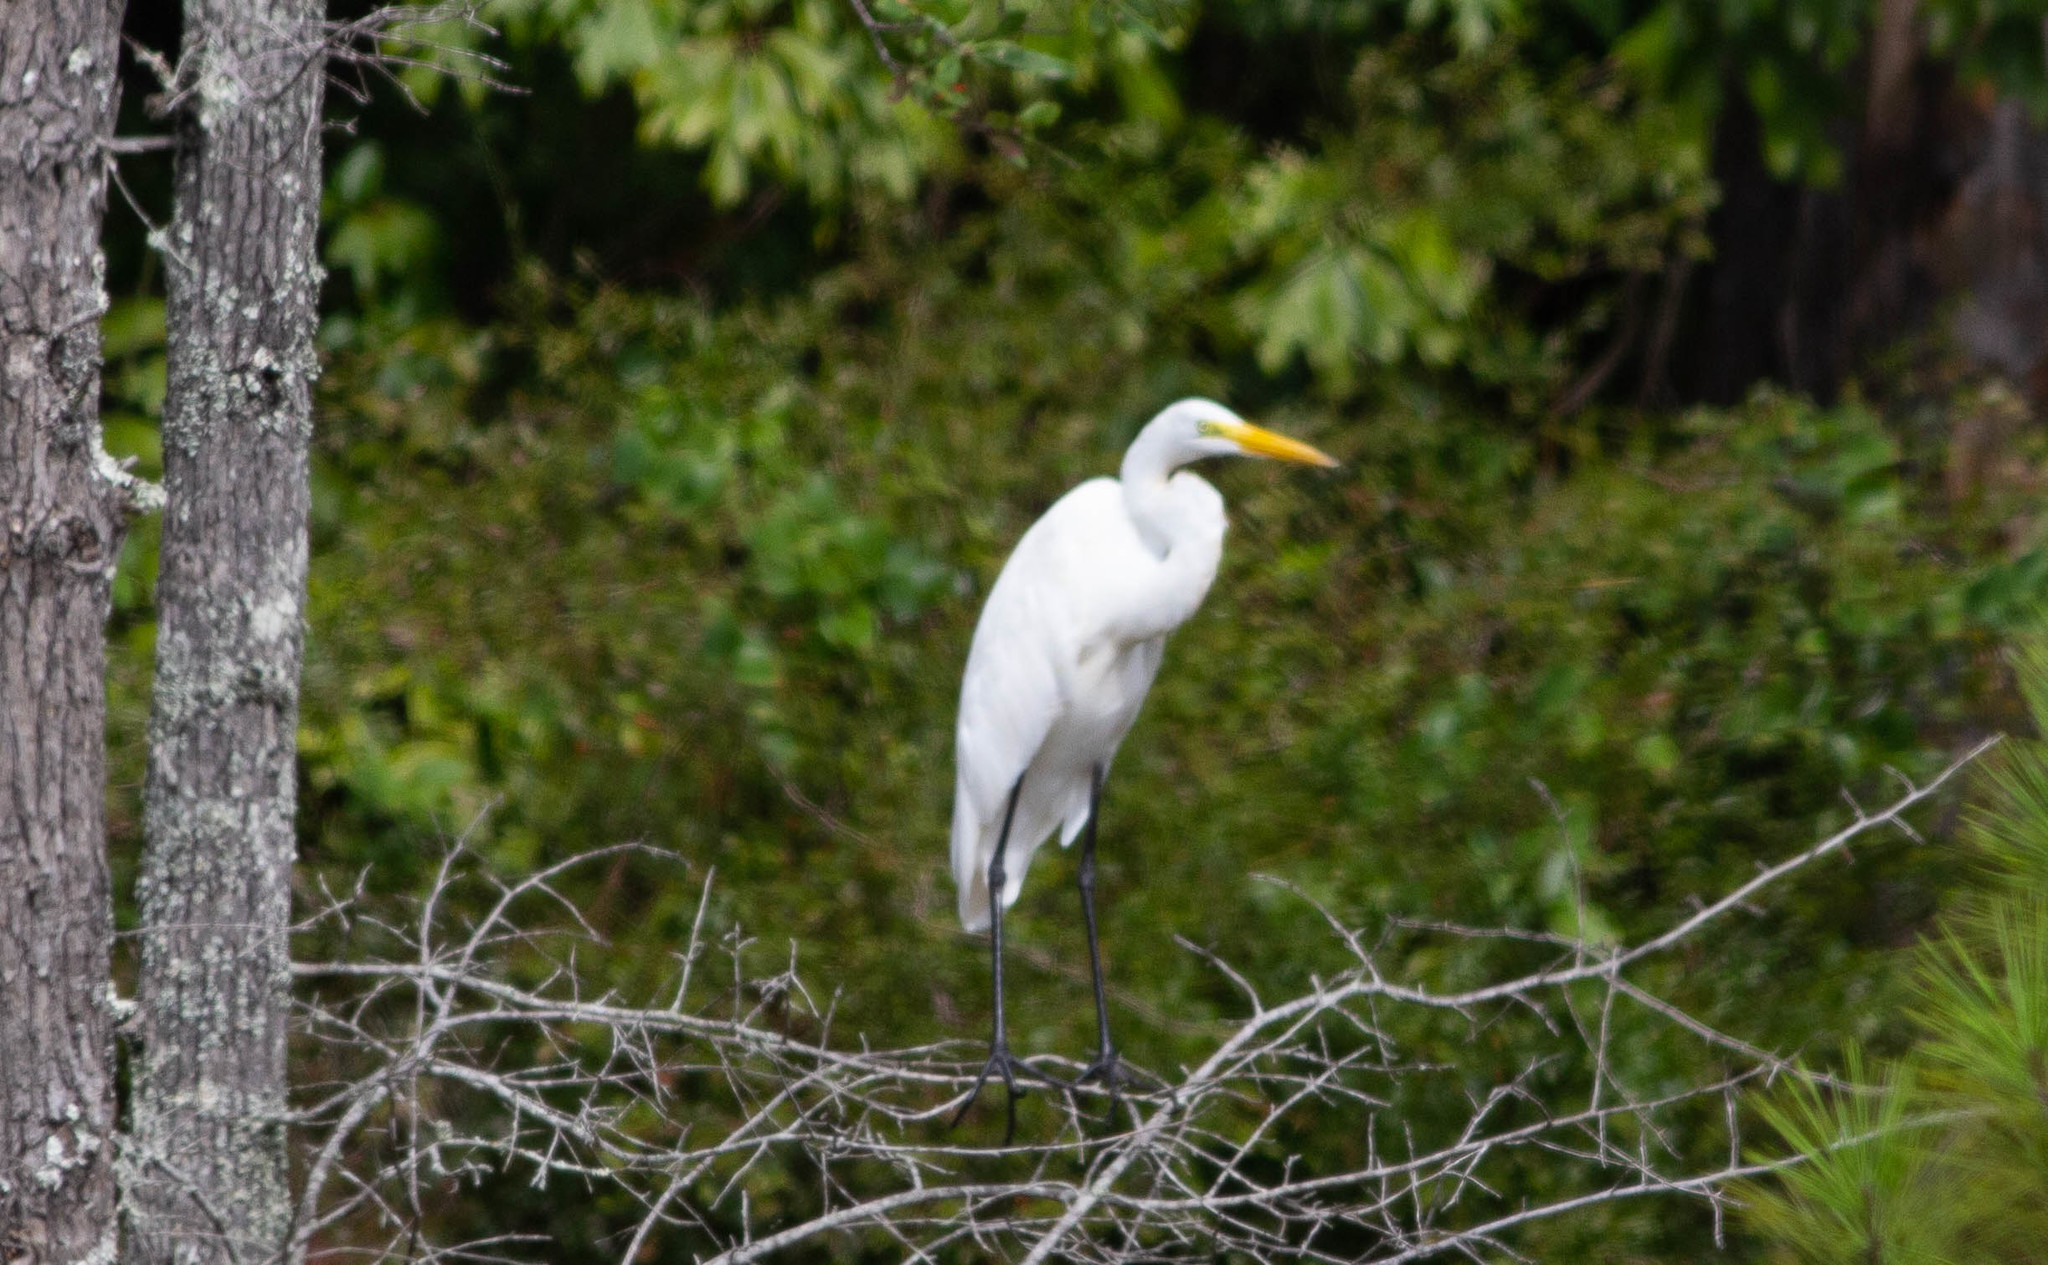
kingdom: Animalia
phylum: Chordata
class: Aves
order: Pelecaniformes
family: Ardeidae
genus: Ardea
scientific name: Ardea alba
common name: Great egret
